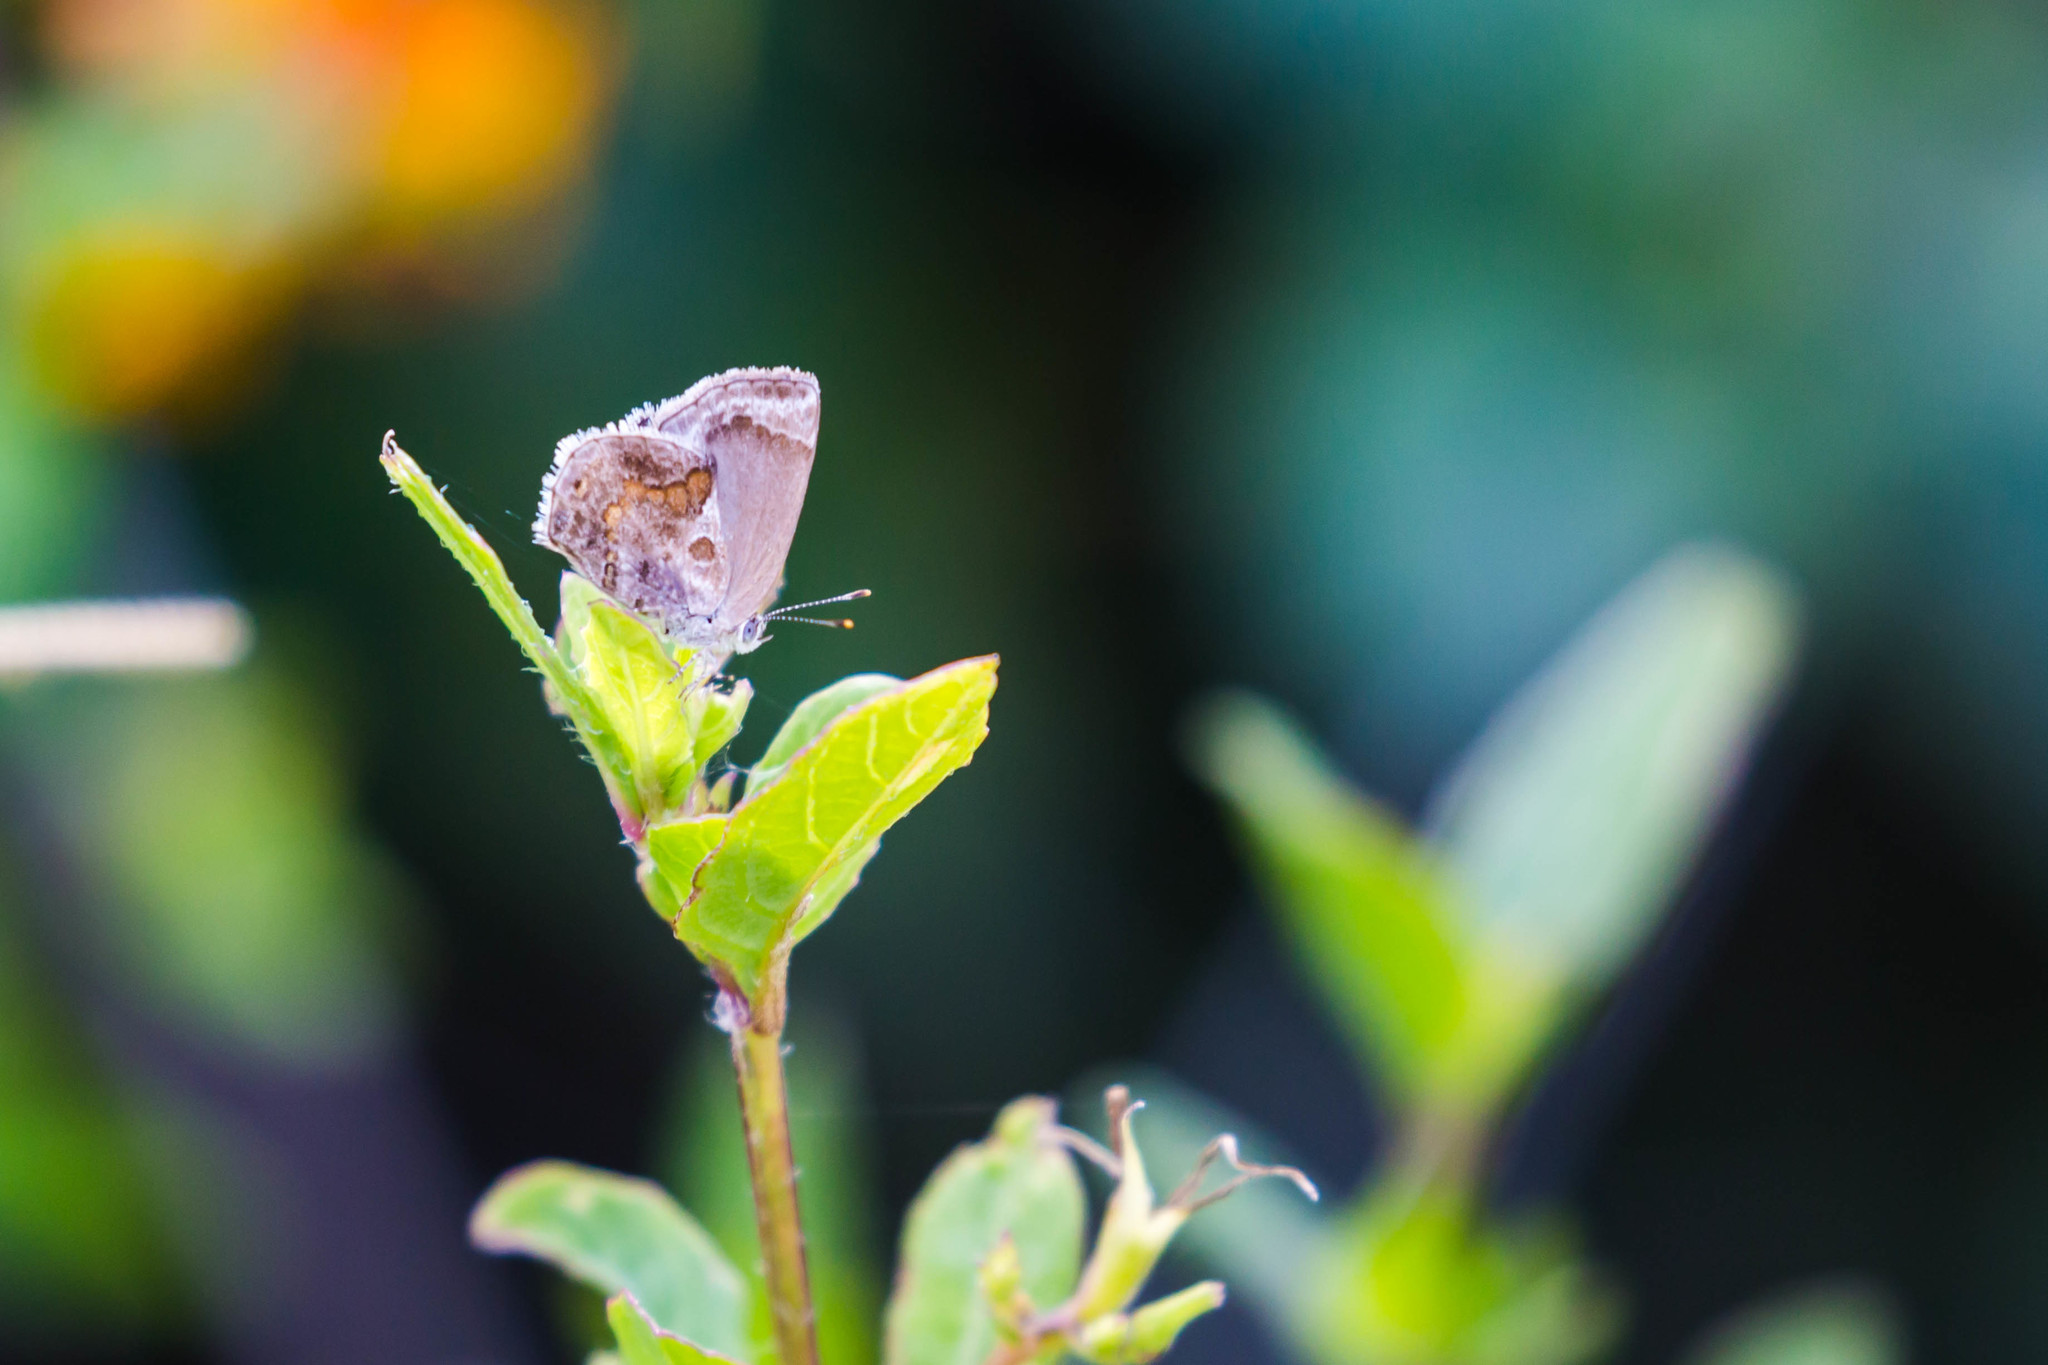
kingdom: Animalia
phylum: Arthropoda
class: Insecta
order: Lepidoptera
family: Lycaenidae
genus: Strymon
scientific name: Strymon bazochii
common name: Lantana scrub-hairstreak
